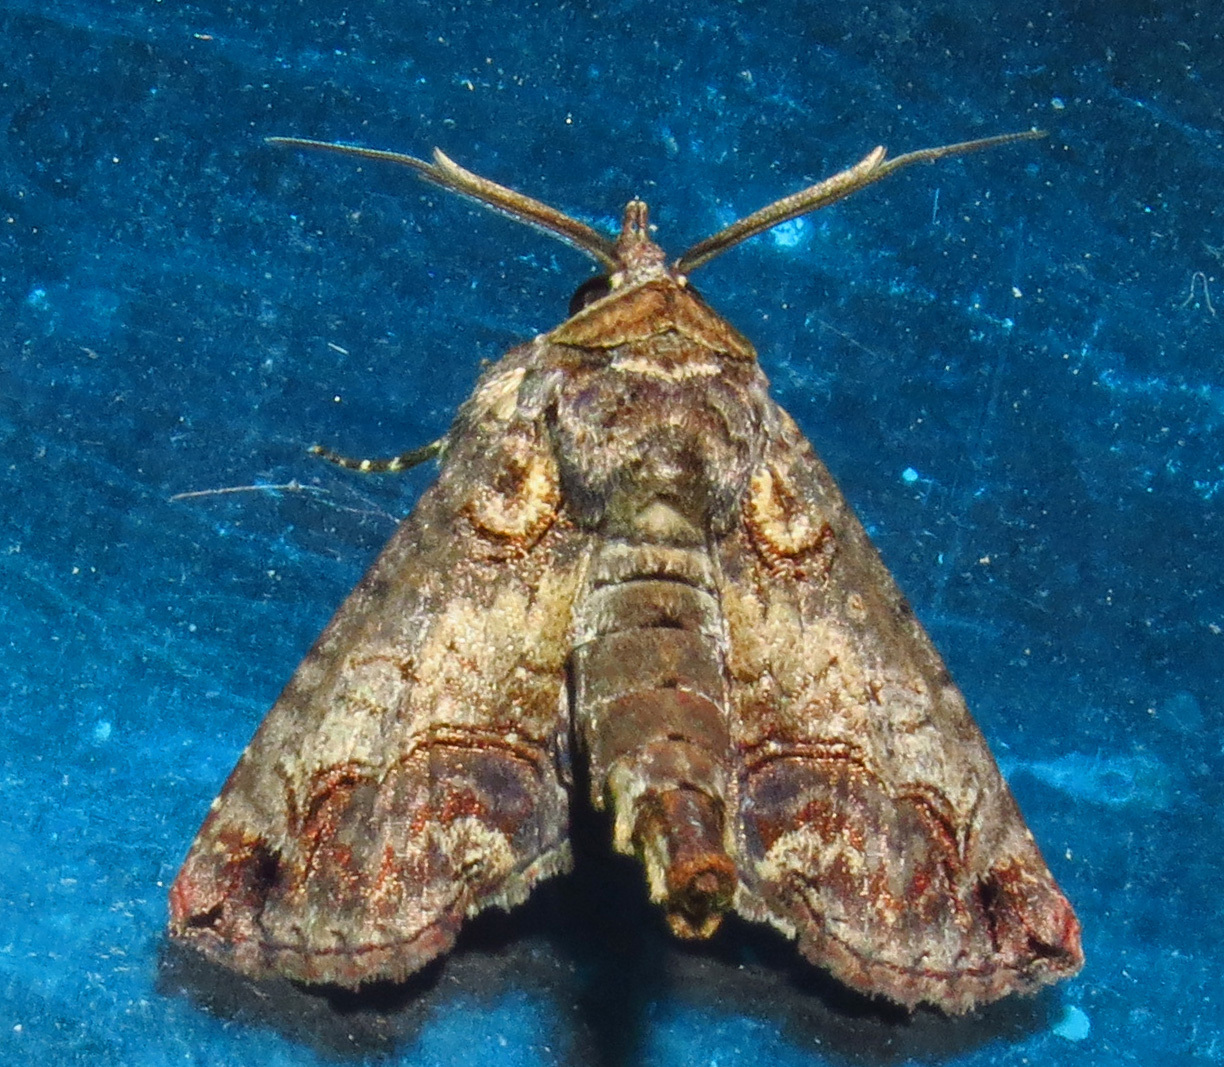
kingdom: Animalia
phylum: Arthropoda
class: Insecta
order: Lepidoptera
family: Euteliidae
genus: Paectes
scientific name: Paectes abrostoloides
